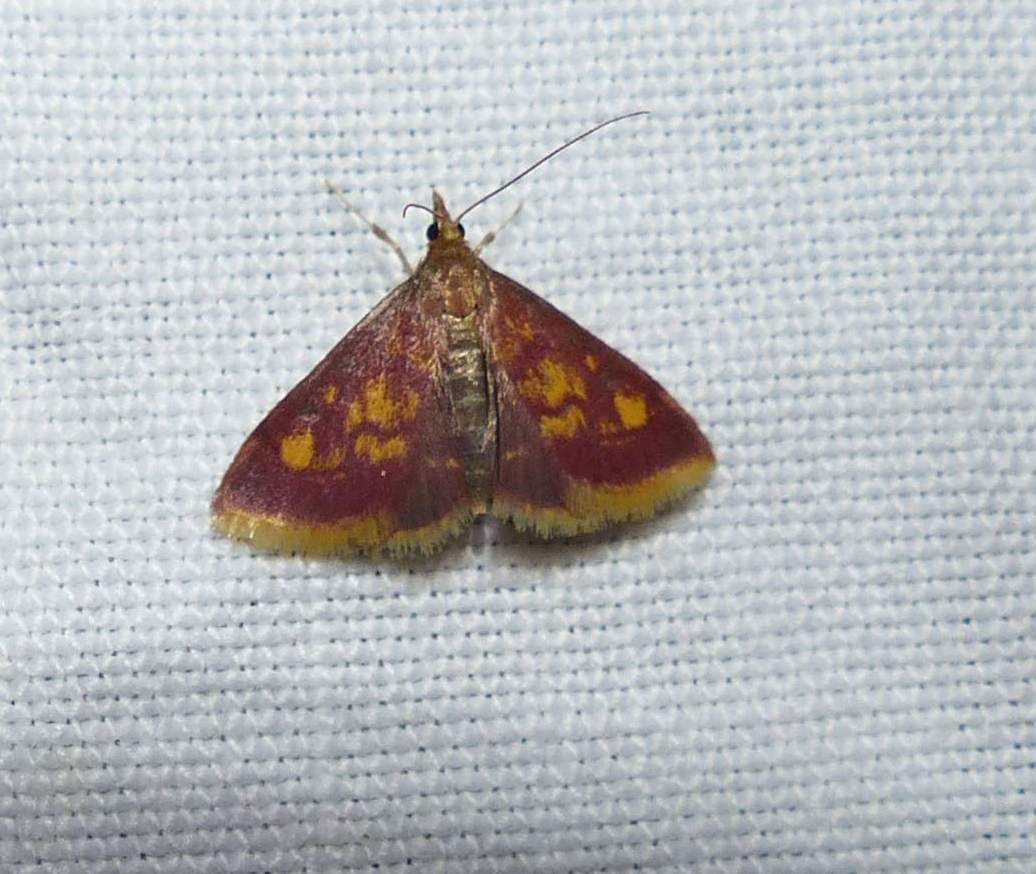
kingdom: Animalia
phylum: Arthropoda
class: Insecta
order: Lepidoptera
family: Crambidae
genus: Pyrausta
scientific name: Pyrausta acrionalis
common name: Mint-loving pyrausta moth
